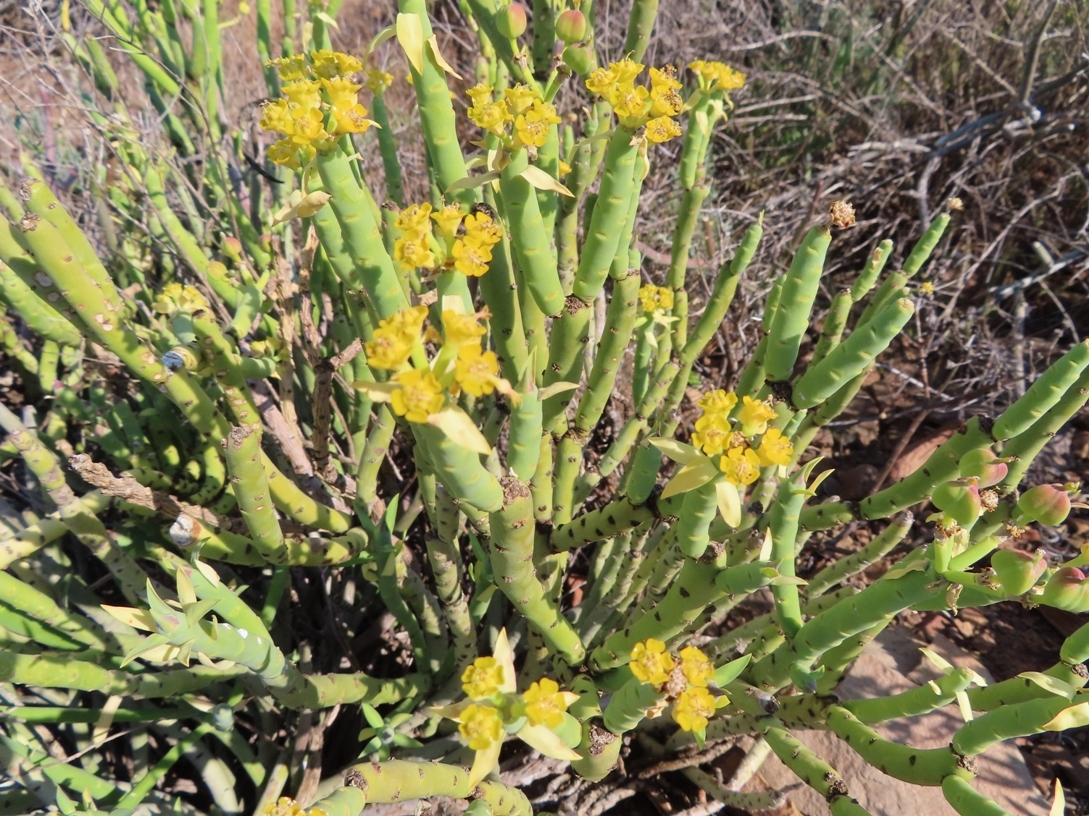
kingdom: Plantae
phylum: Tracheophyta
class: Magnoliopsida
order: Malpighiales
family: Euphorbiaceae
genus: Euphorbia
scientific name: Euphorbia mauritanica
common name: Jackal's-food
